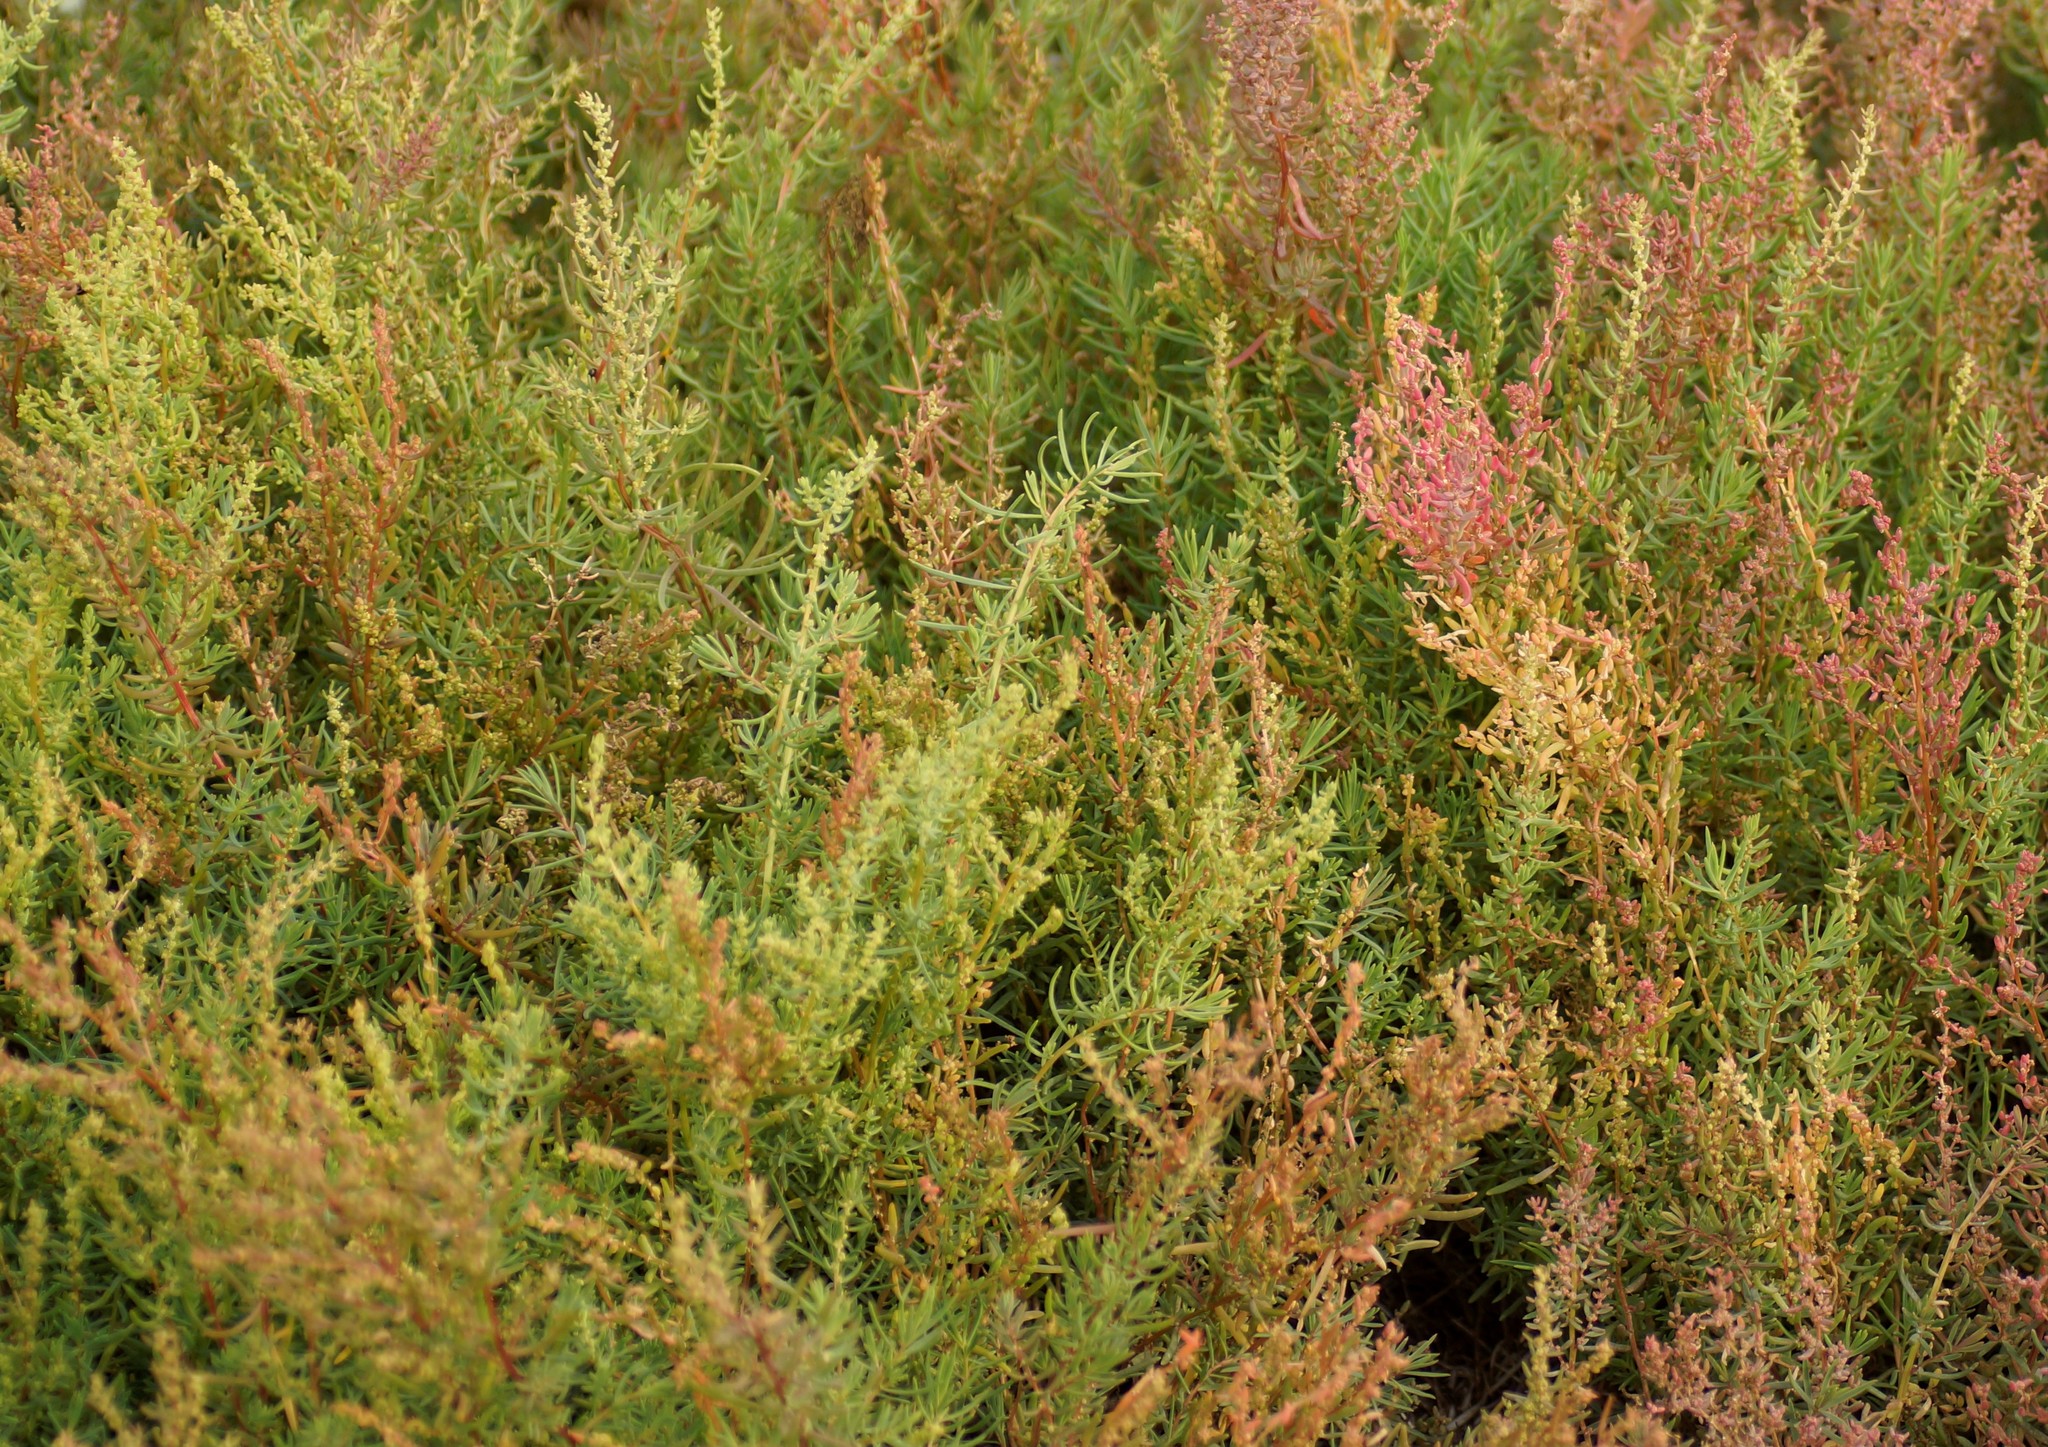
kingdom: Plantae
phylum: Tracheophyta
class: Magnoliopsida
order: Caryophyllales
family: Amaranthaceae
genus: Suaeda
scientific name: Suaeda australis
